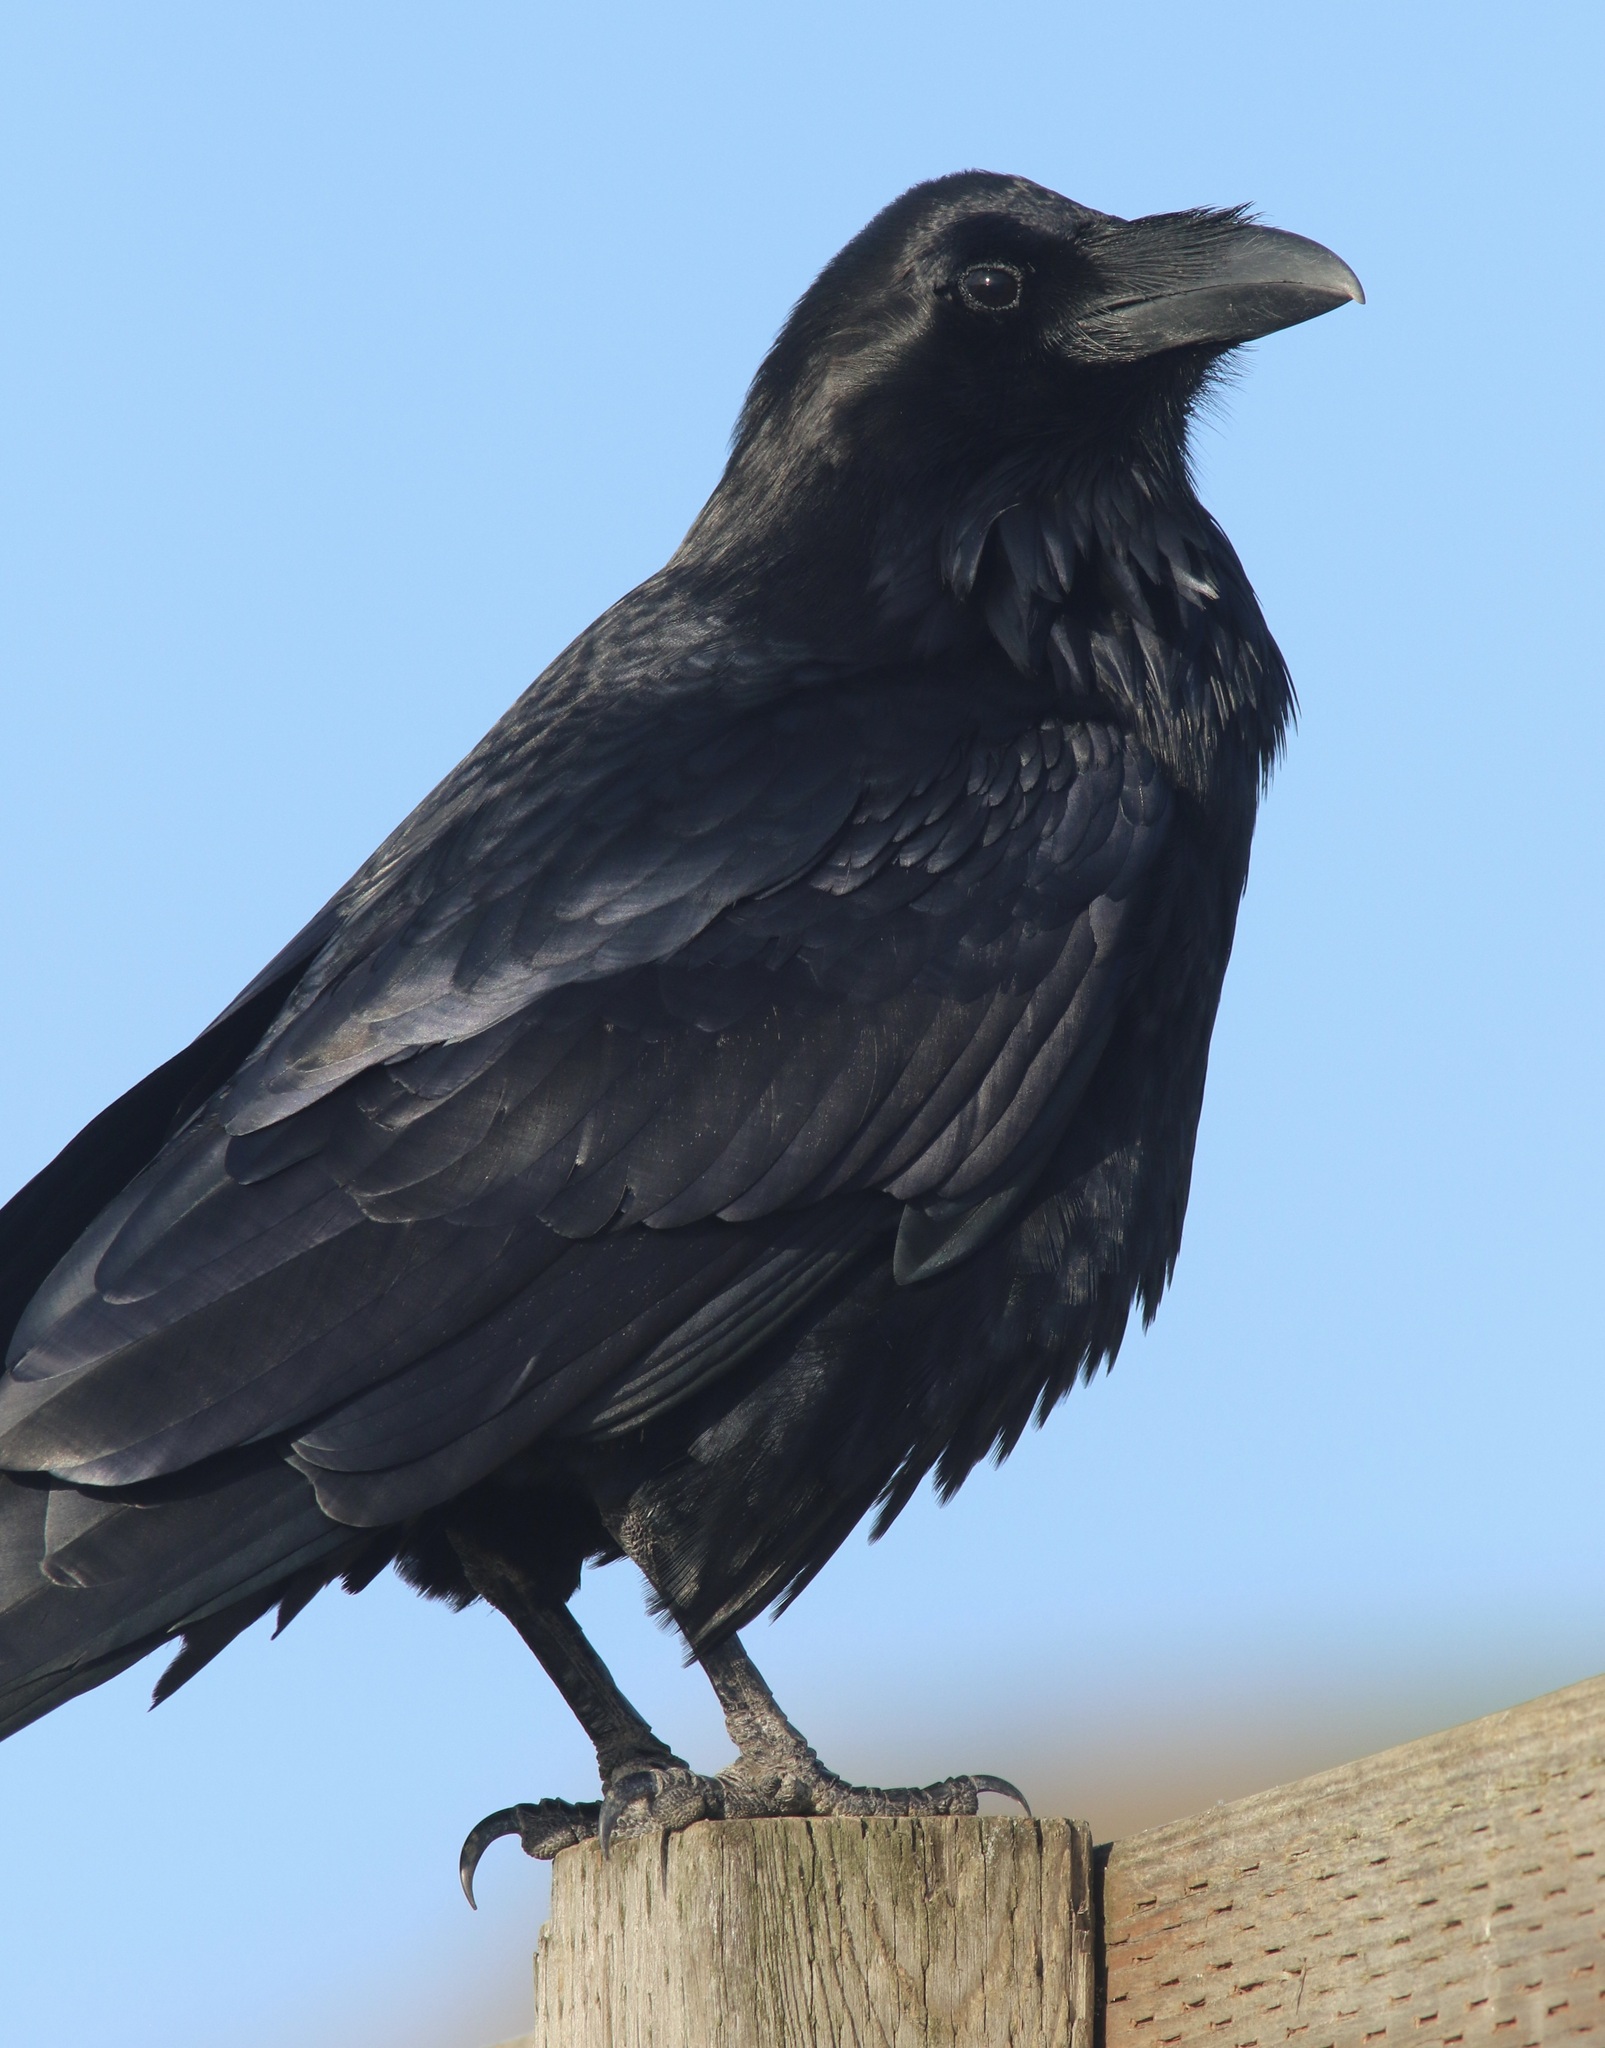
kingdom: Animalia
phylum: Chordata
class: Aves
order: Passeriformes
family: Corvidae
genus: Corvus
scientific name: Corvus corax
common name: Common raven
